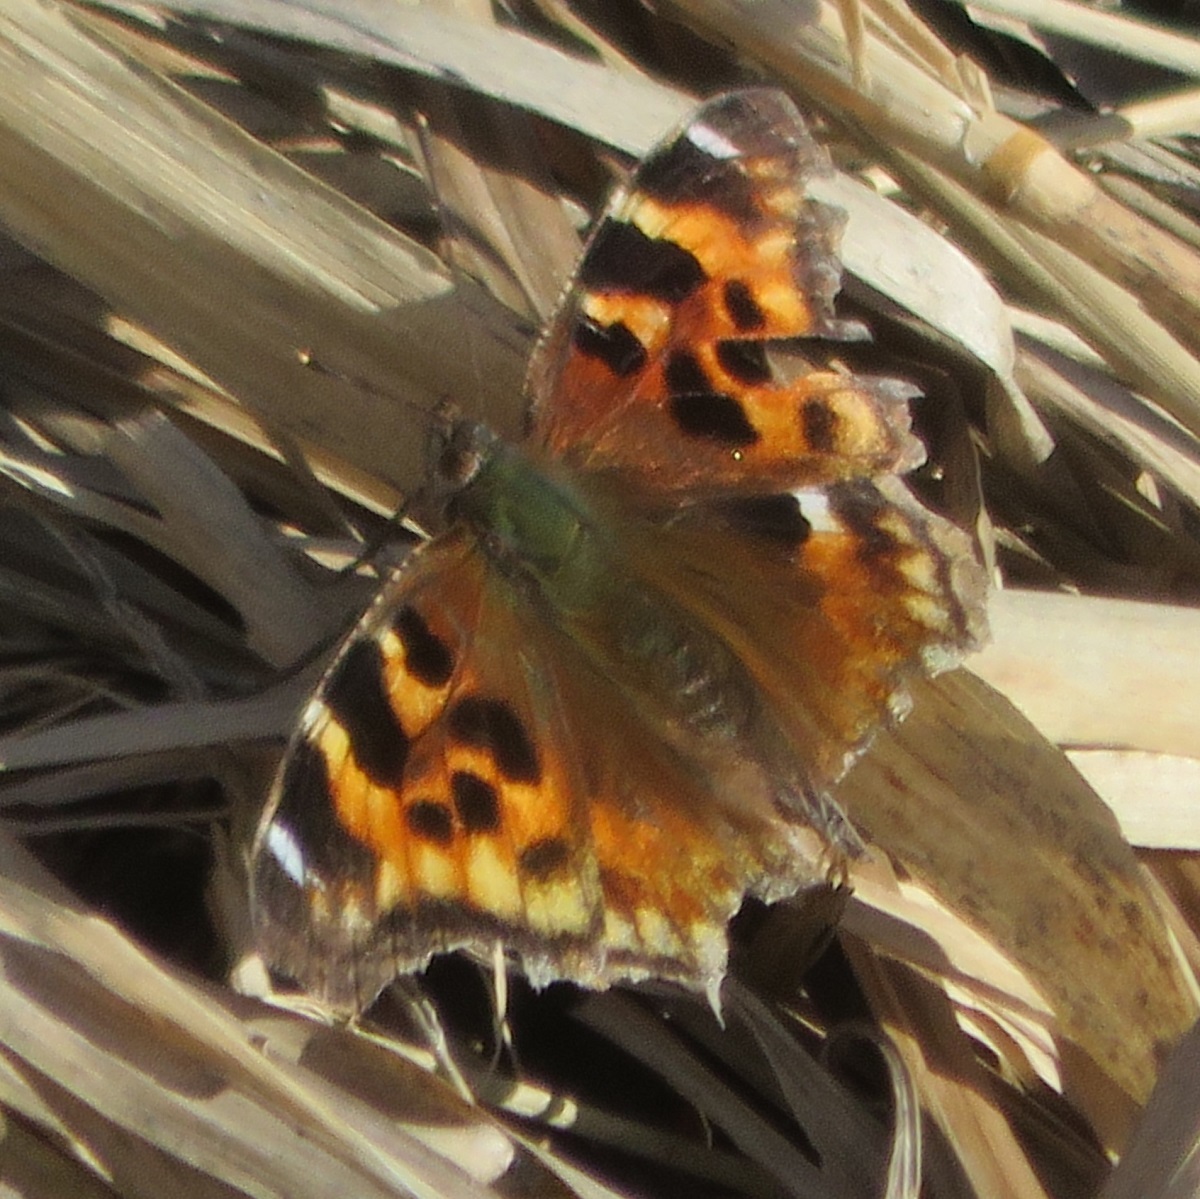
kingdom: Animalia
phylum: Arthropoda
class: Insecta
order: Lepidoptera
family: Nymphalidae
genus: Polygonia
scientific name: Polygonia vaualbum
